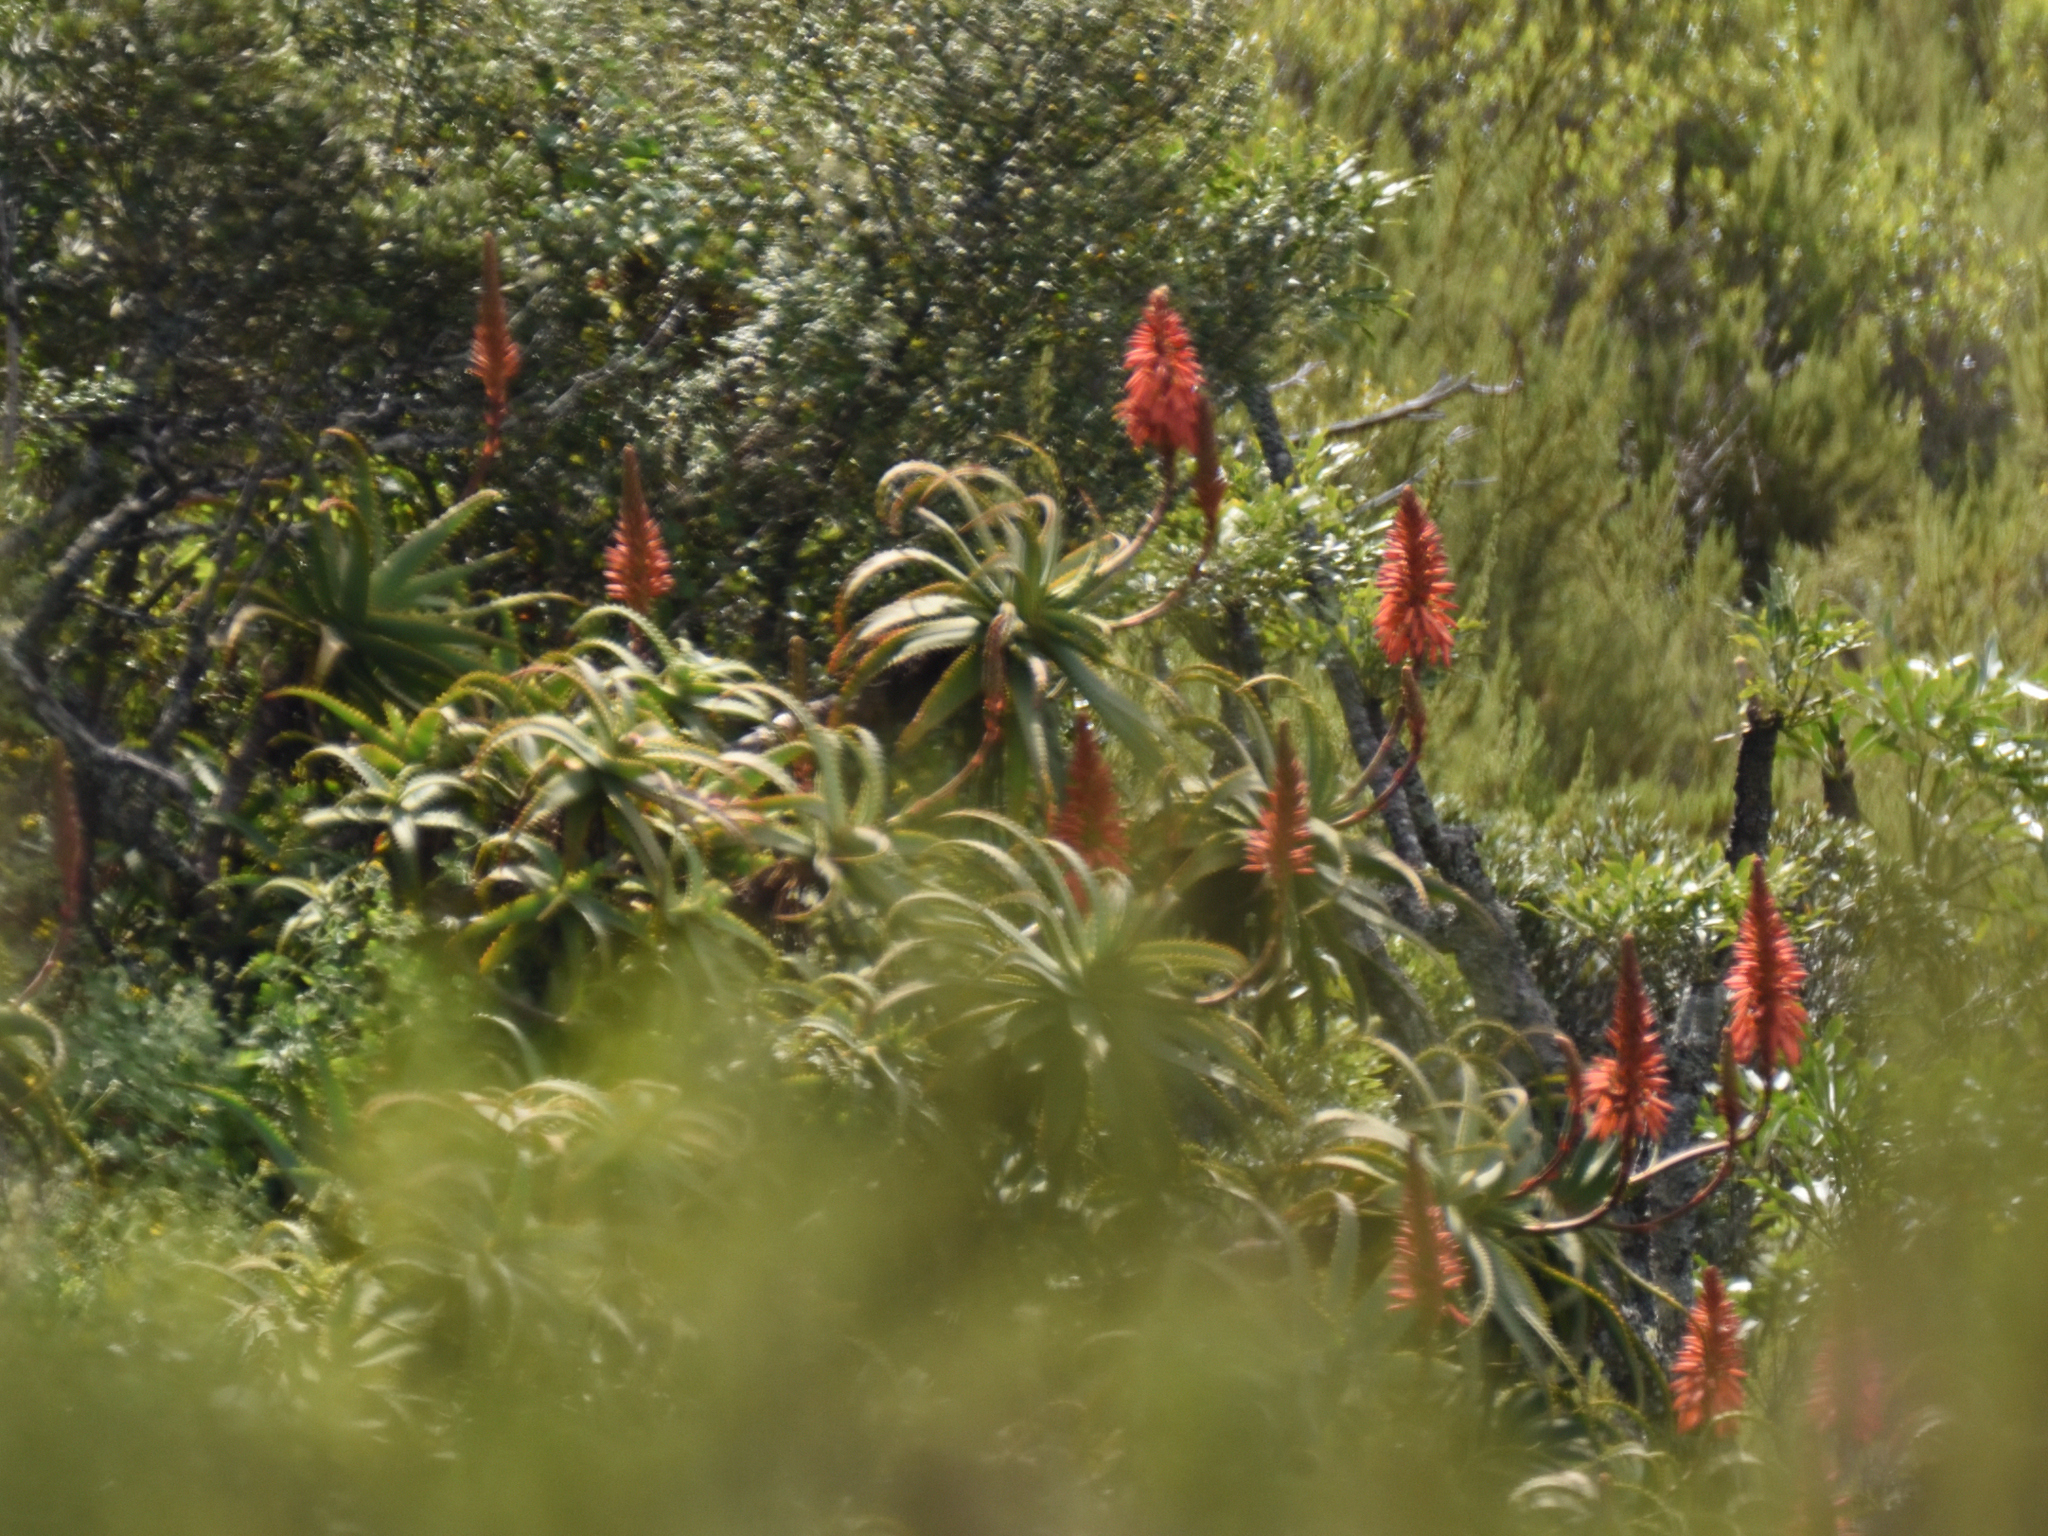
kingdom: Plantae
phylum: Tracheophyta
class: Liliopsida
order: Asparagales
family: Asphodelaceae
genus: Aloe
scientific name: Aloe arborescens
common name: Candelabra aloe
